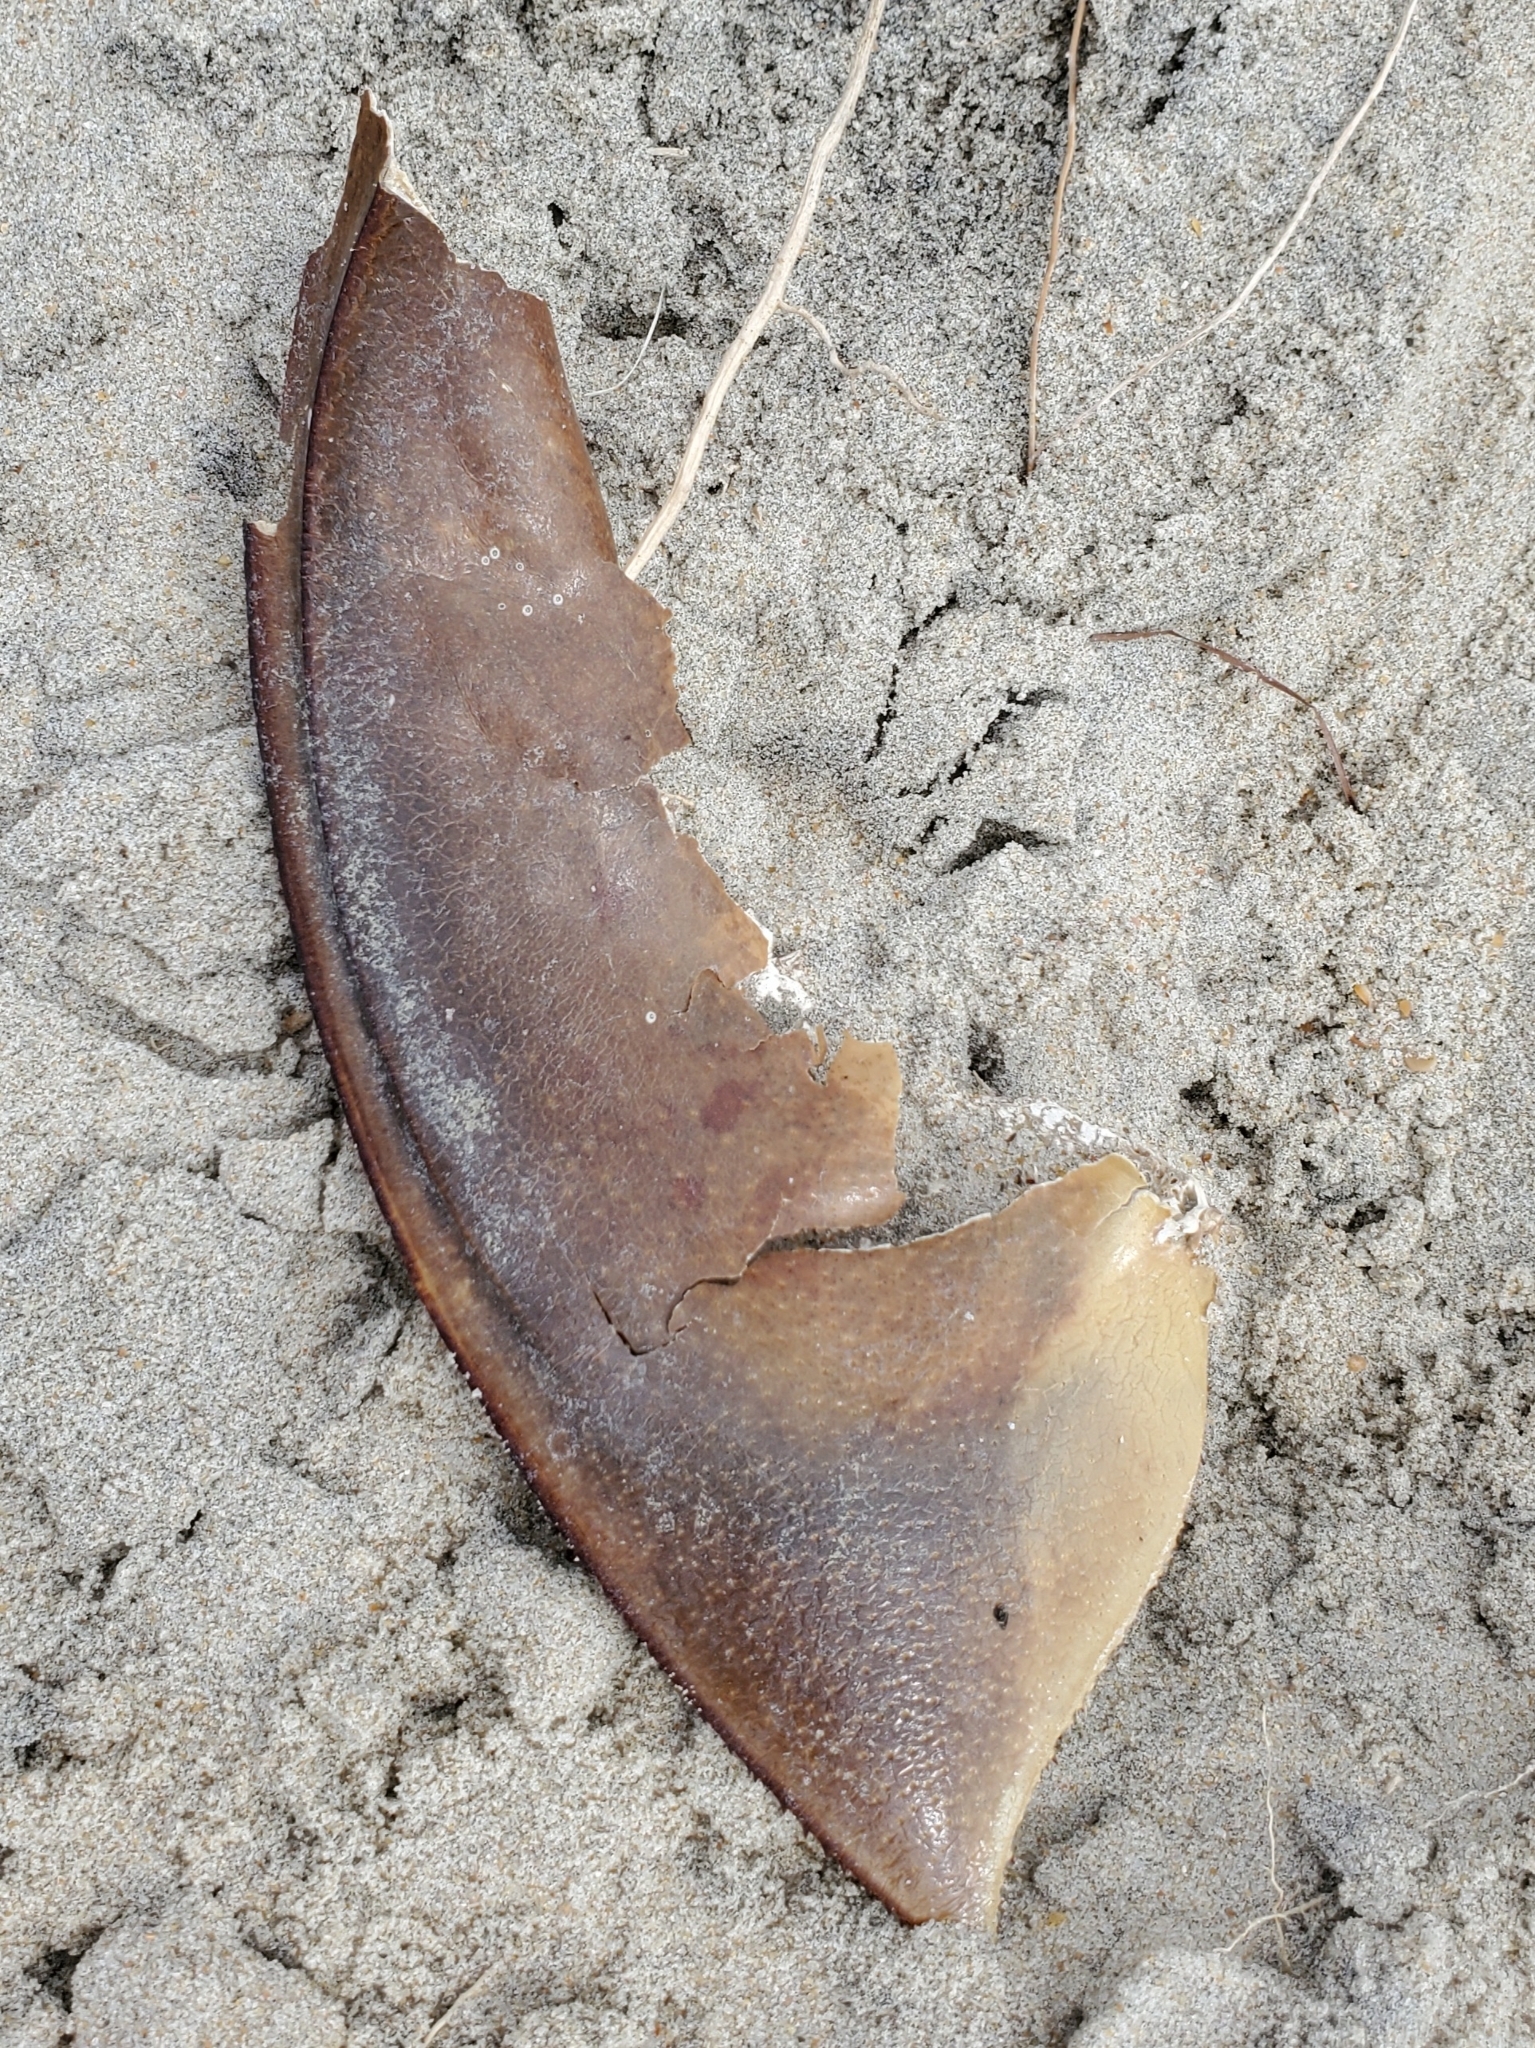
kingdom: Animalia
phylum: Arthropoda
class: Merostomata
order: Xiphosurida
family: Limulidae
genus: Limulus
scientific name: Limulus polyphemus
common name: Horseshoe crab
